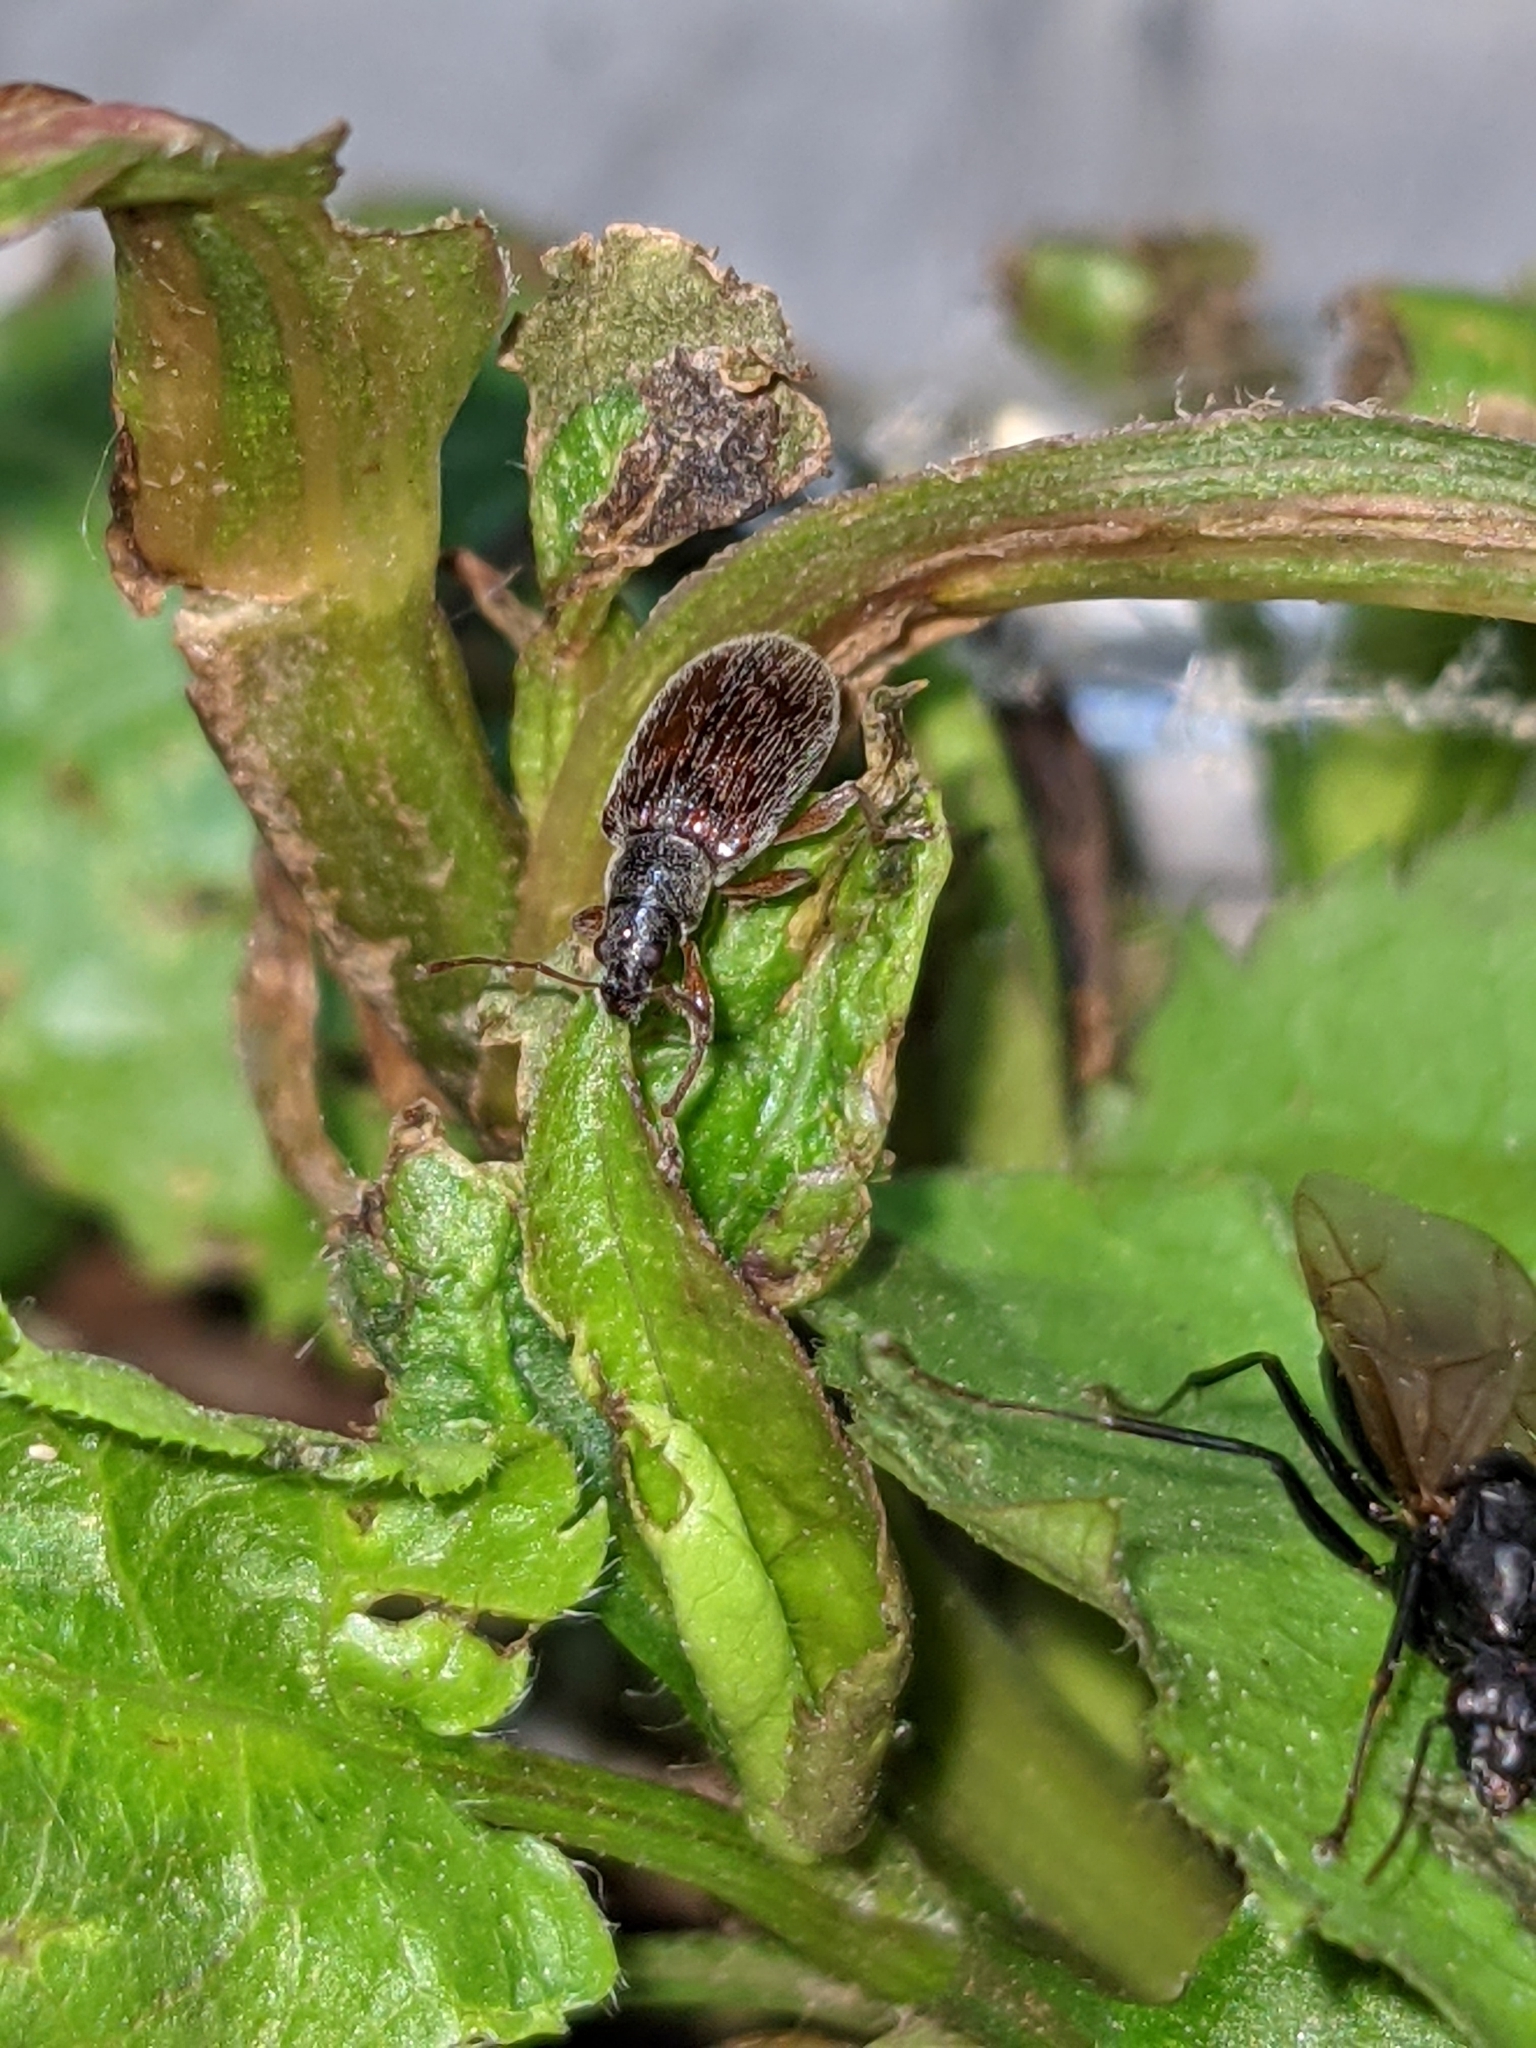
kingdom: Animalia
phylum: Arthropoda
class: Insecta
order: Coleoptera
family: Curculionidae
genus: Phyllobius
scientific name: Phyllobius oblongus
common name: Brown leaf weevil
